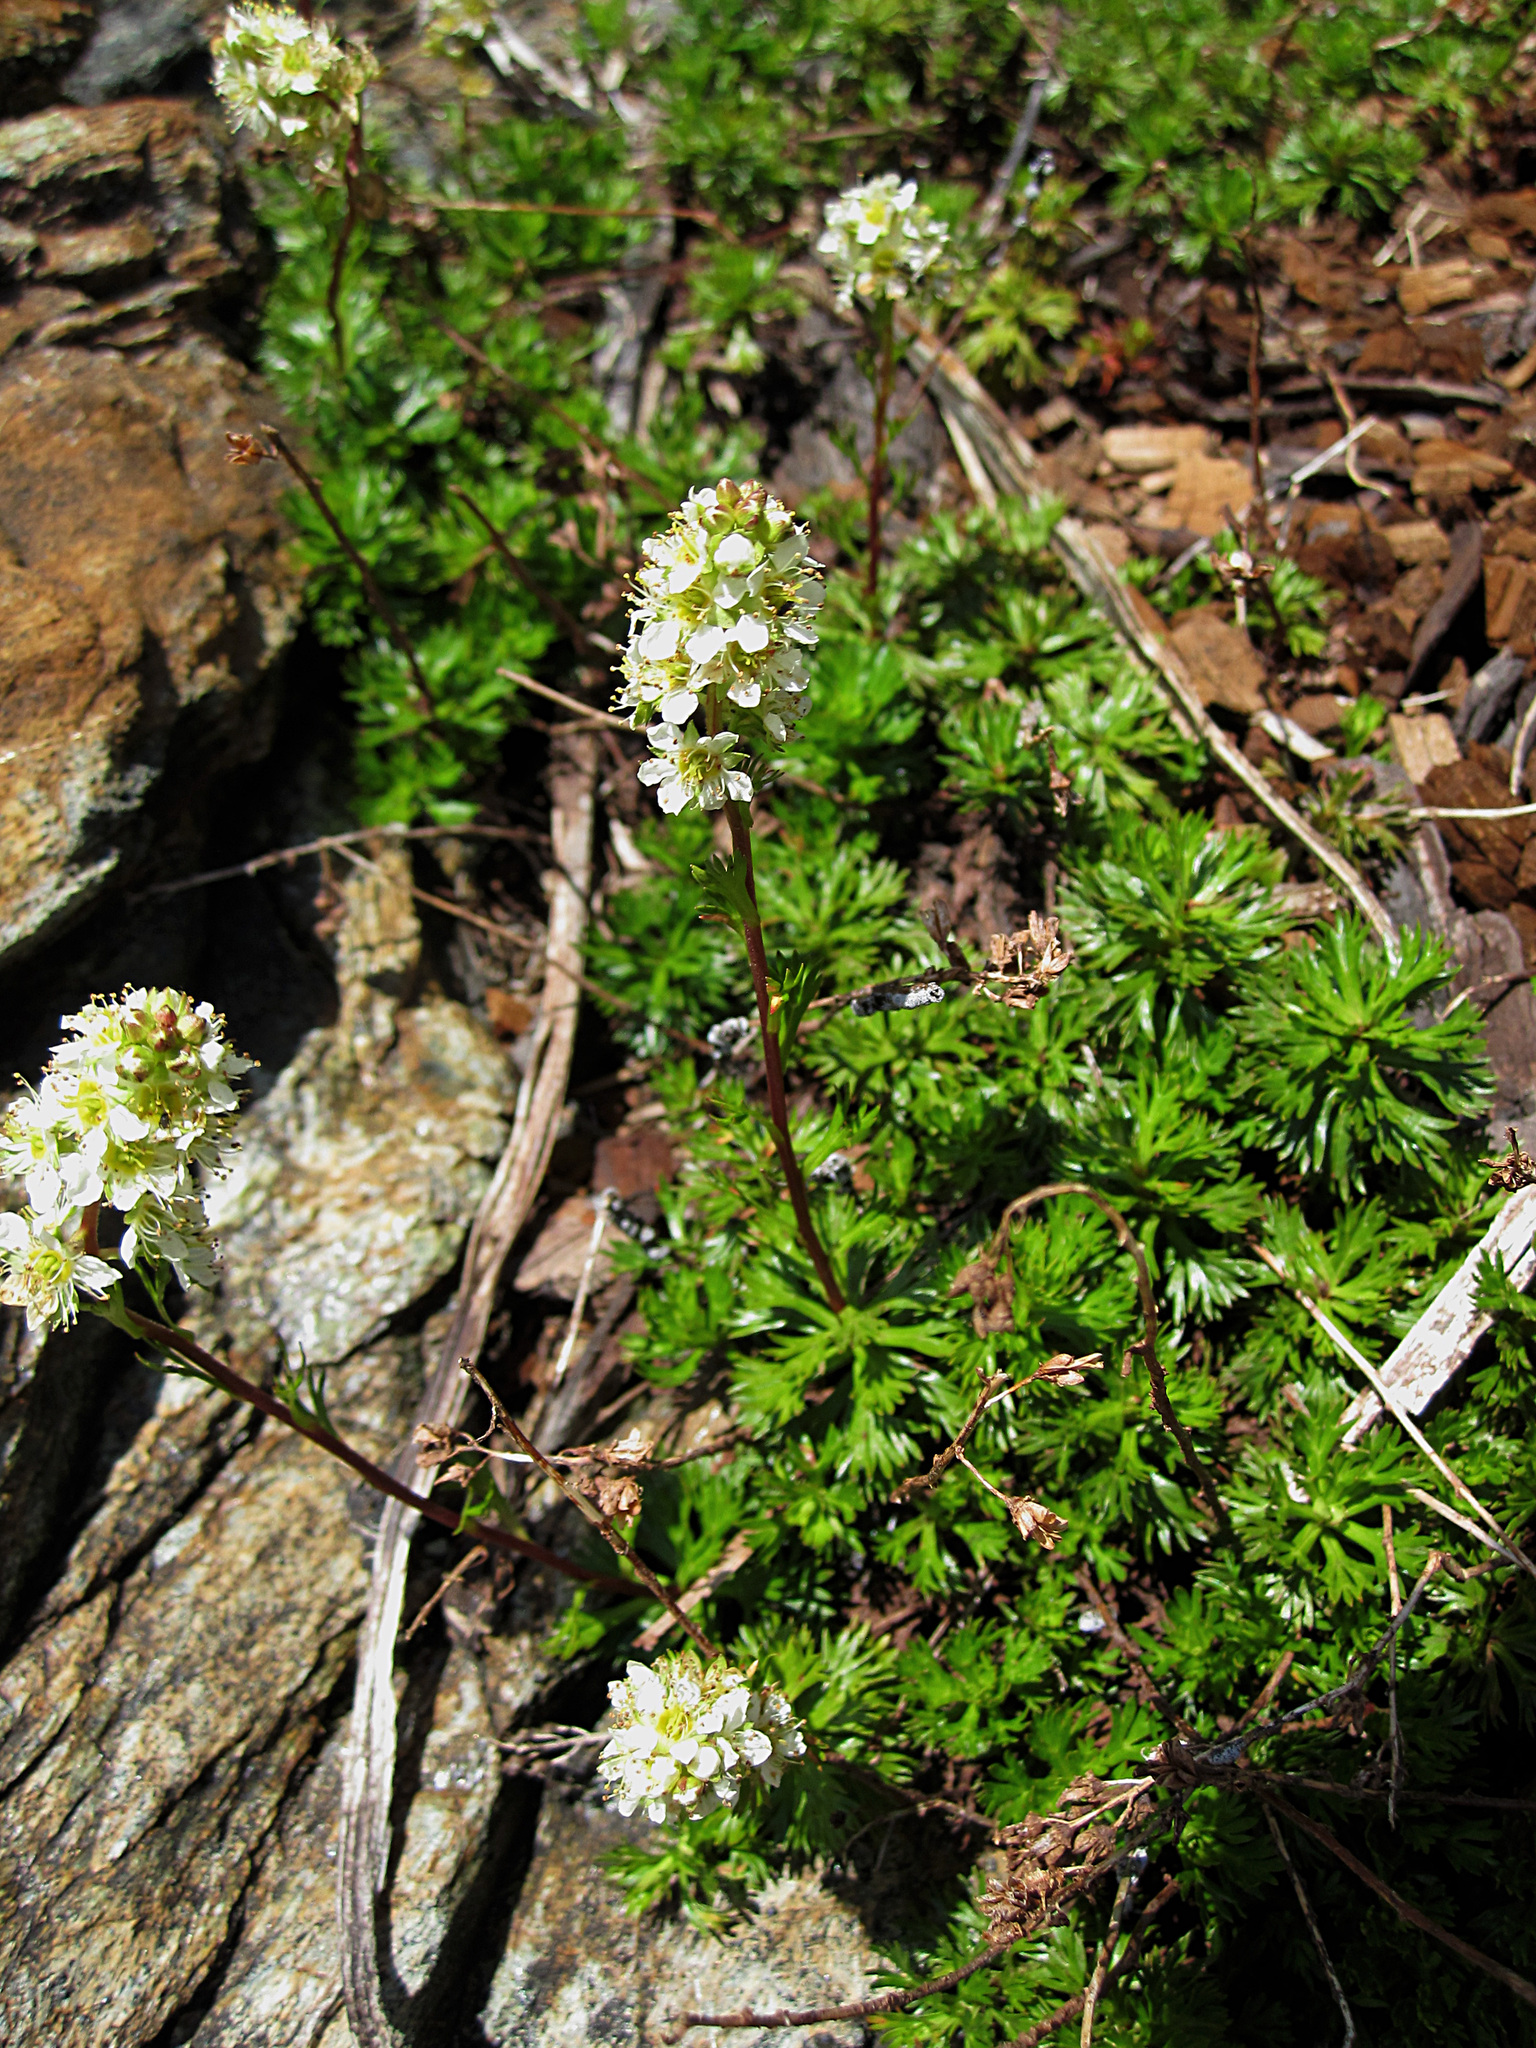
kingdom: Plantae
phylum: Tracheophyta
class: Magnoliopsida
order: Rosales
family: Rosaceae
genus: Luetkea
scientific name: Luetkea pectinata
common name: Partridgefoot
